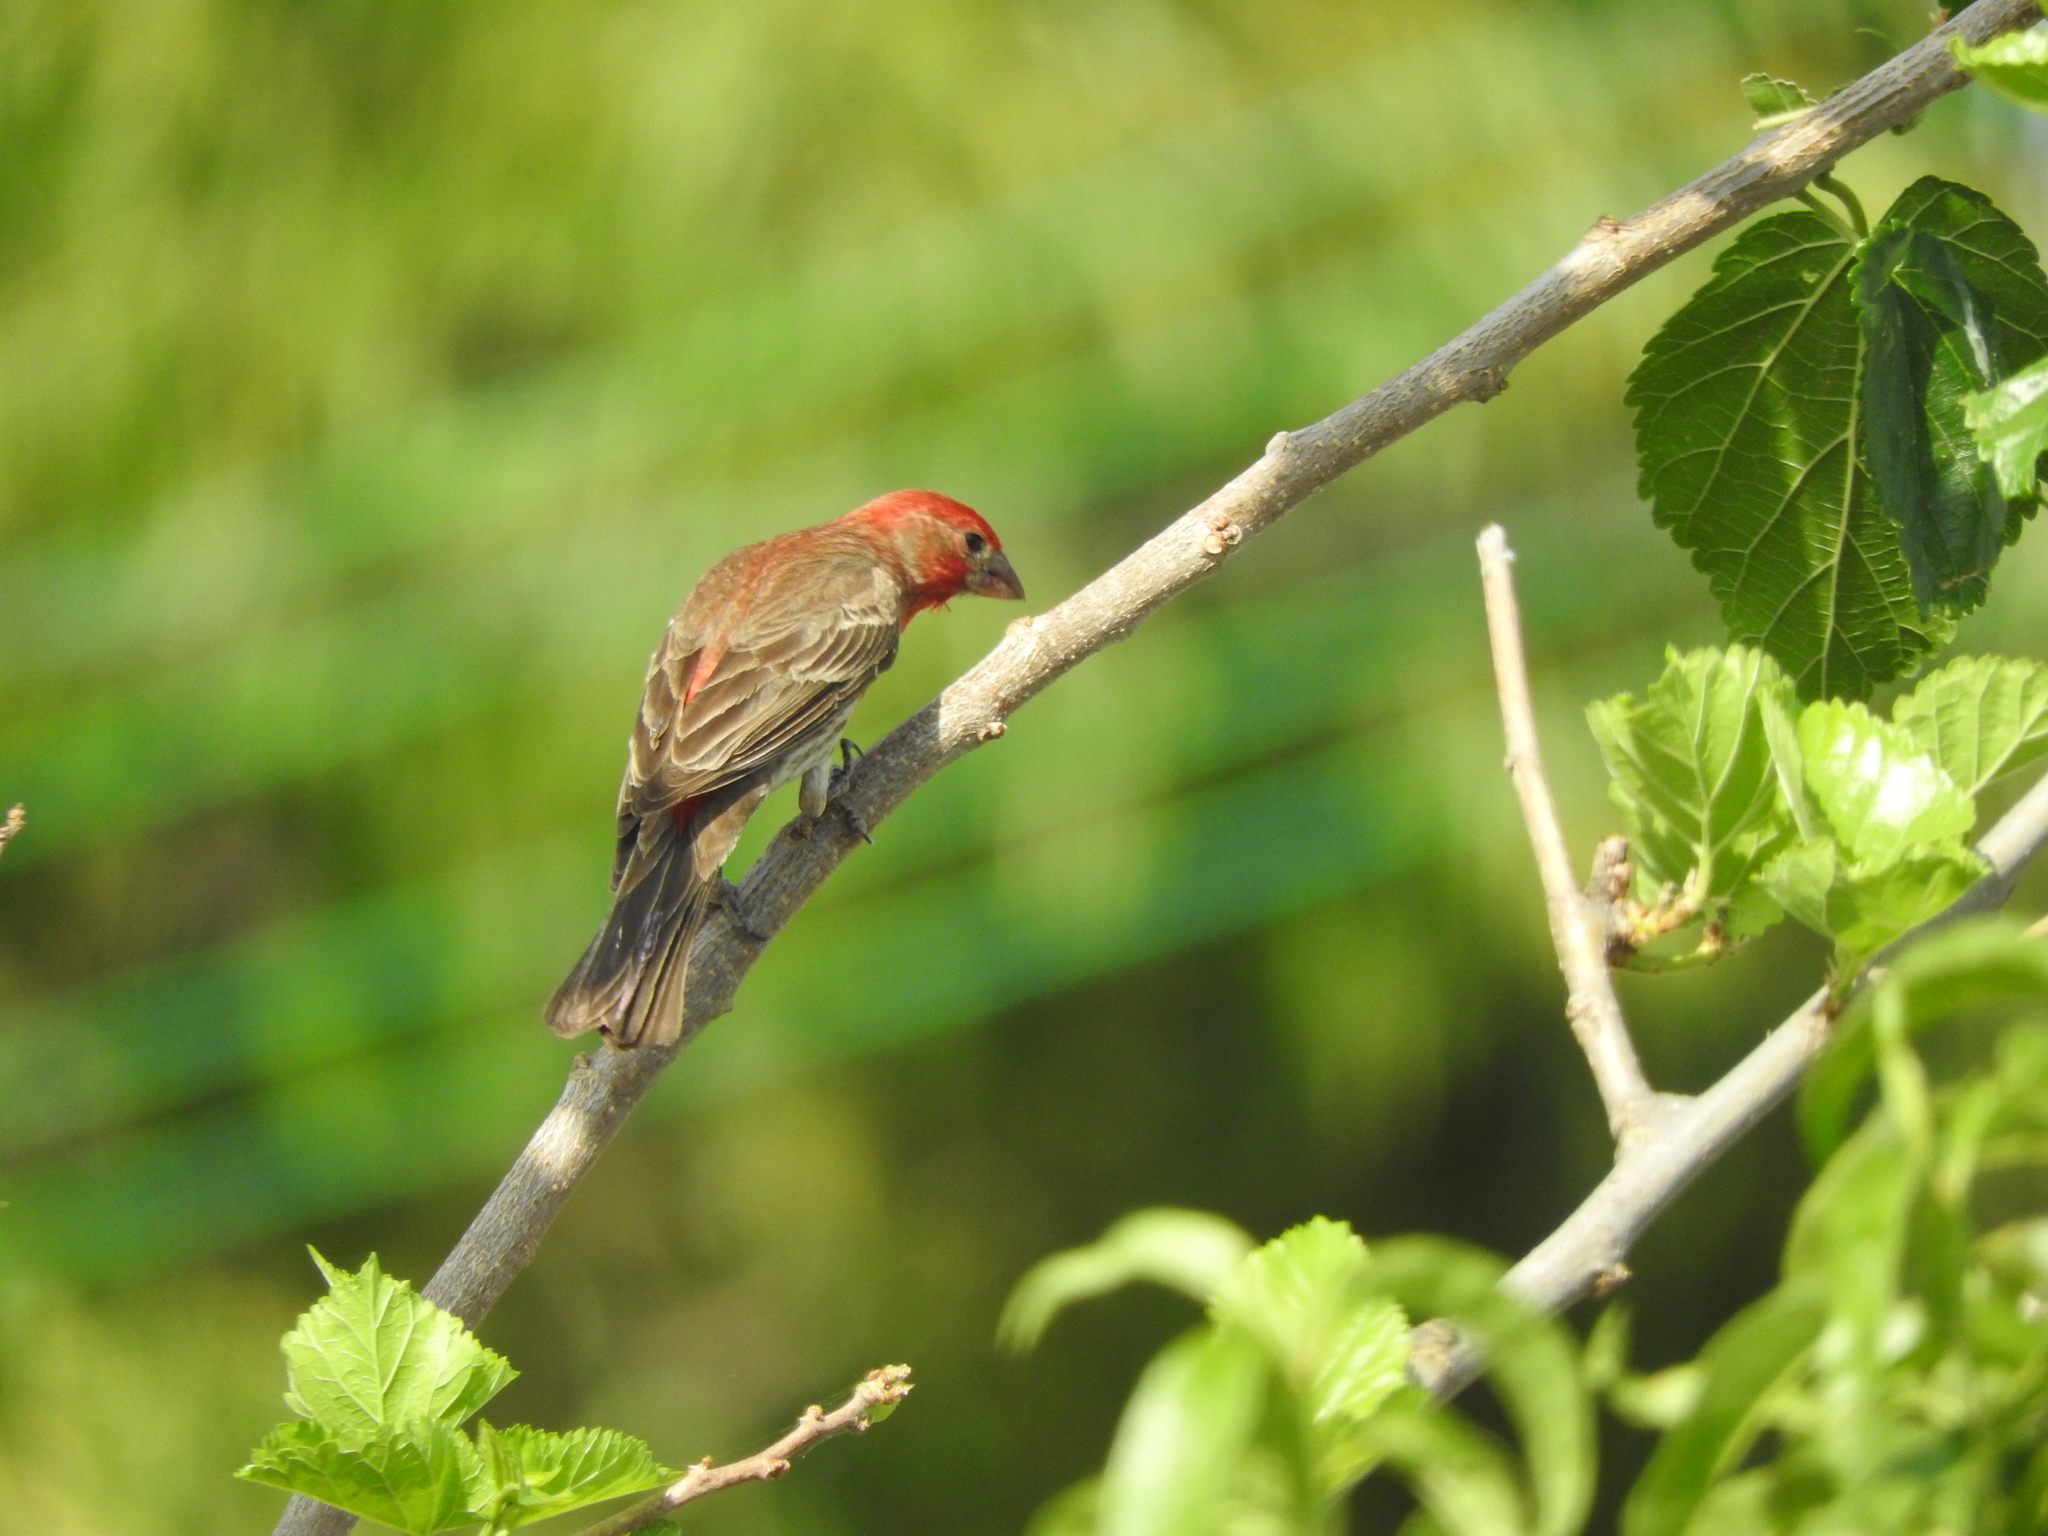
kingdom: Animalia
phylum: Chordata
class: Aves
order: Passeriformes
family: Fringillidae
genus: Haemorhous
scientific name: Haemorhous mexicanus
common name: House finch
